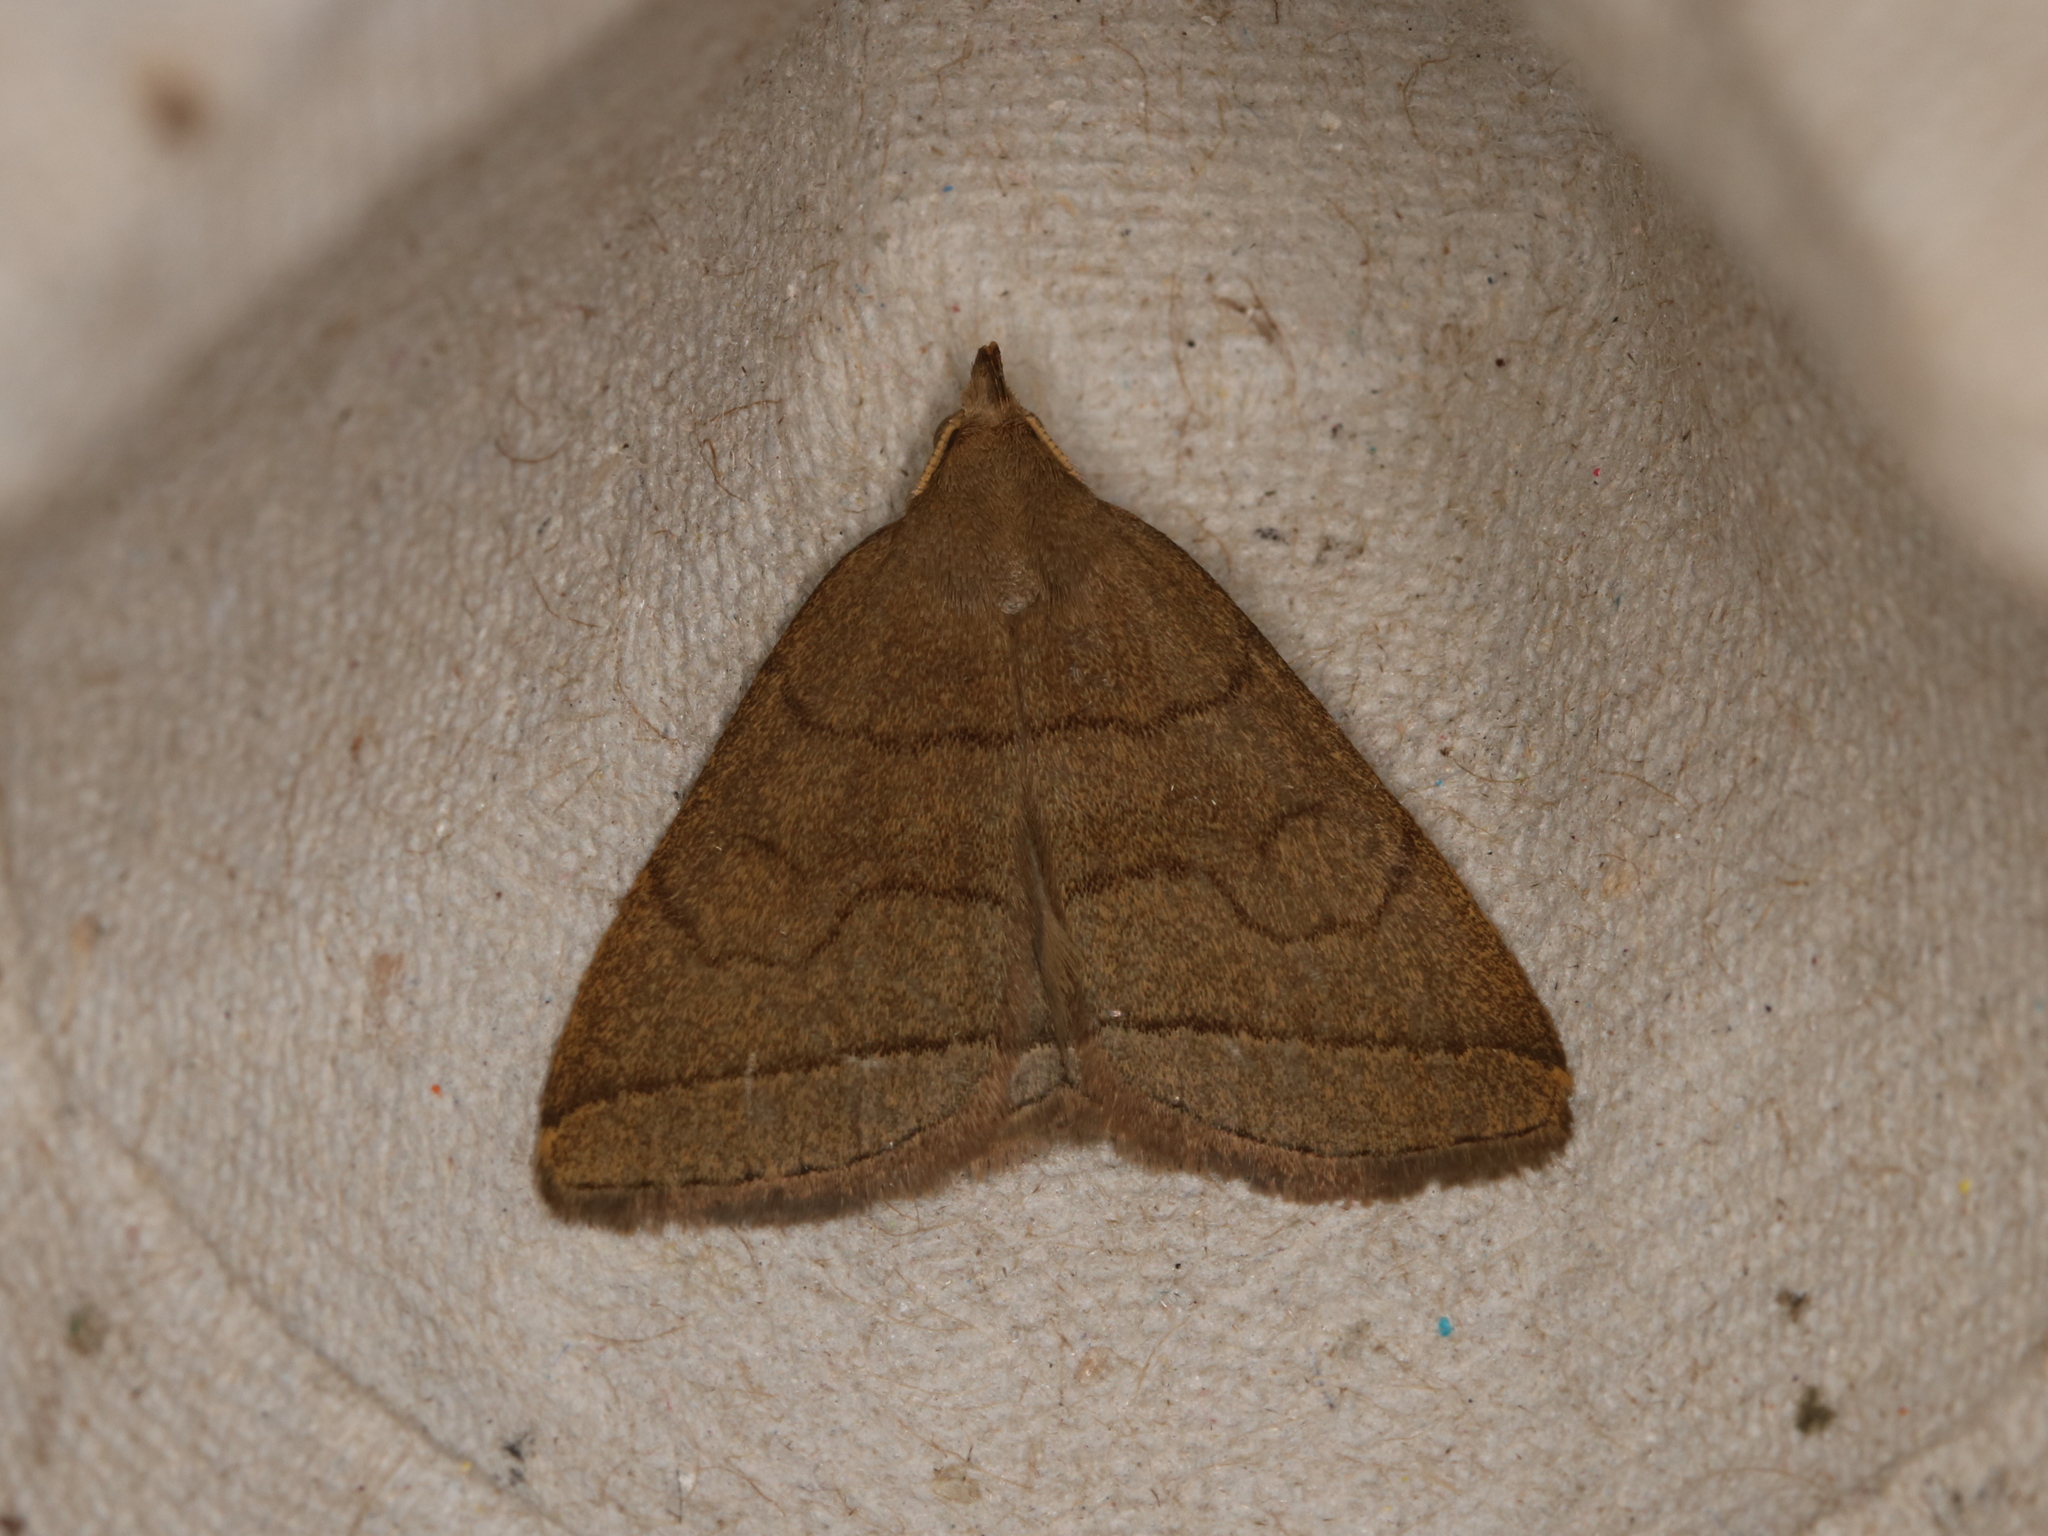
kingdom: Animalia
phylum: Arthropoda
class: Insecta
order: Lepidoptera
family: Erebidae
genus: Herminia
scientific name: Herminia tarsipennalis
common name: Fan-foot
